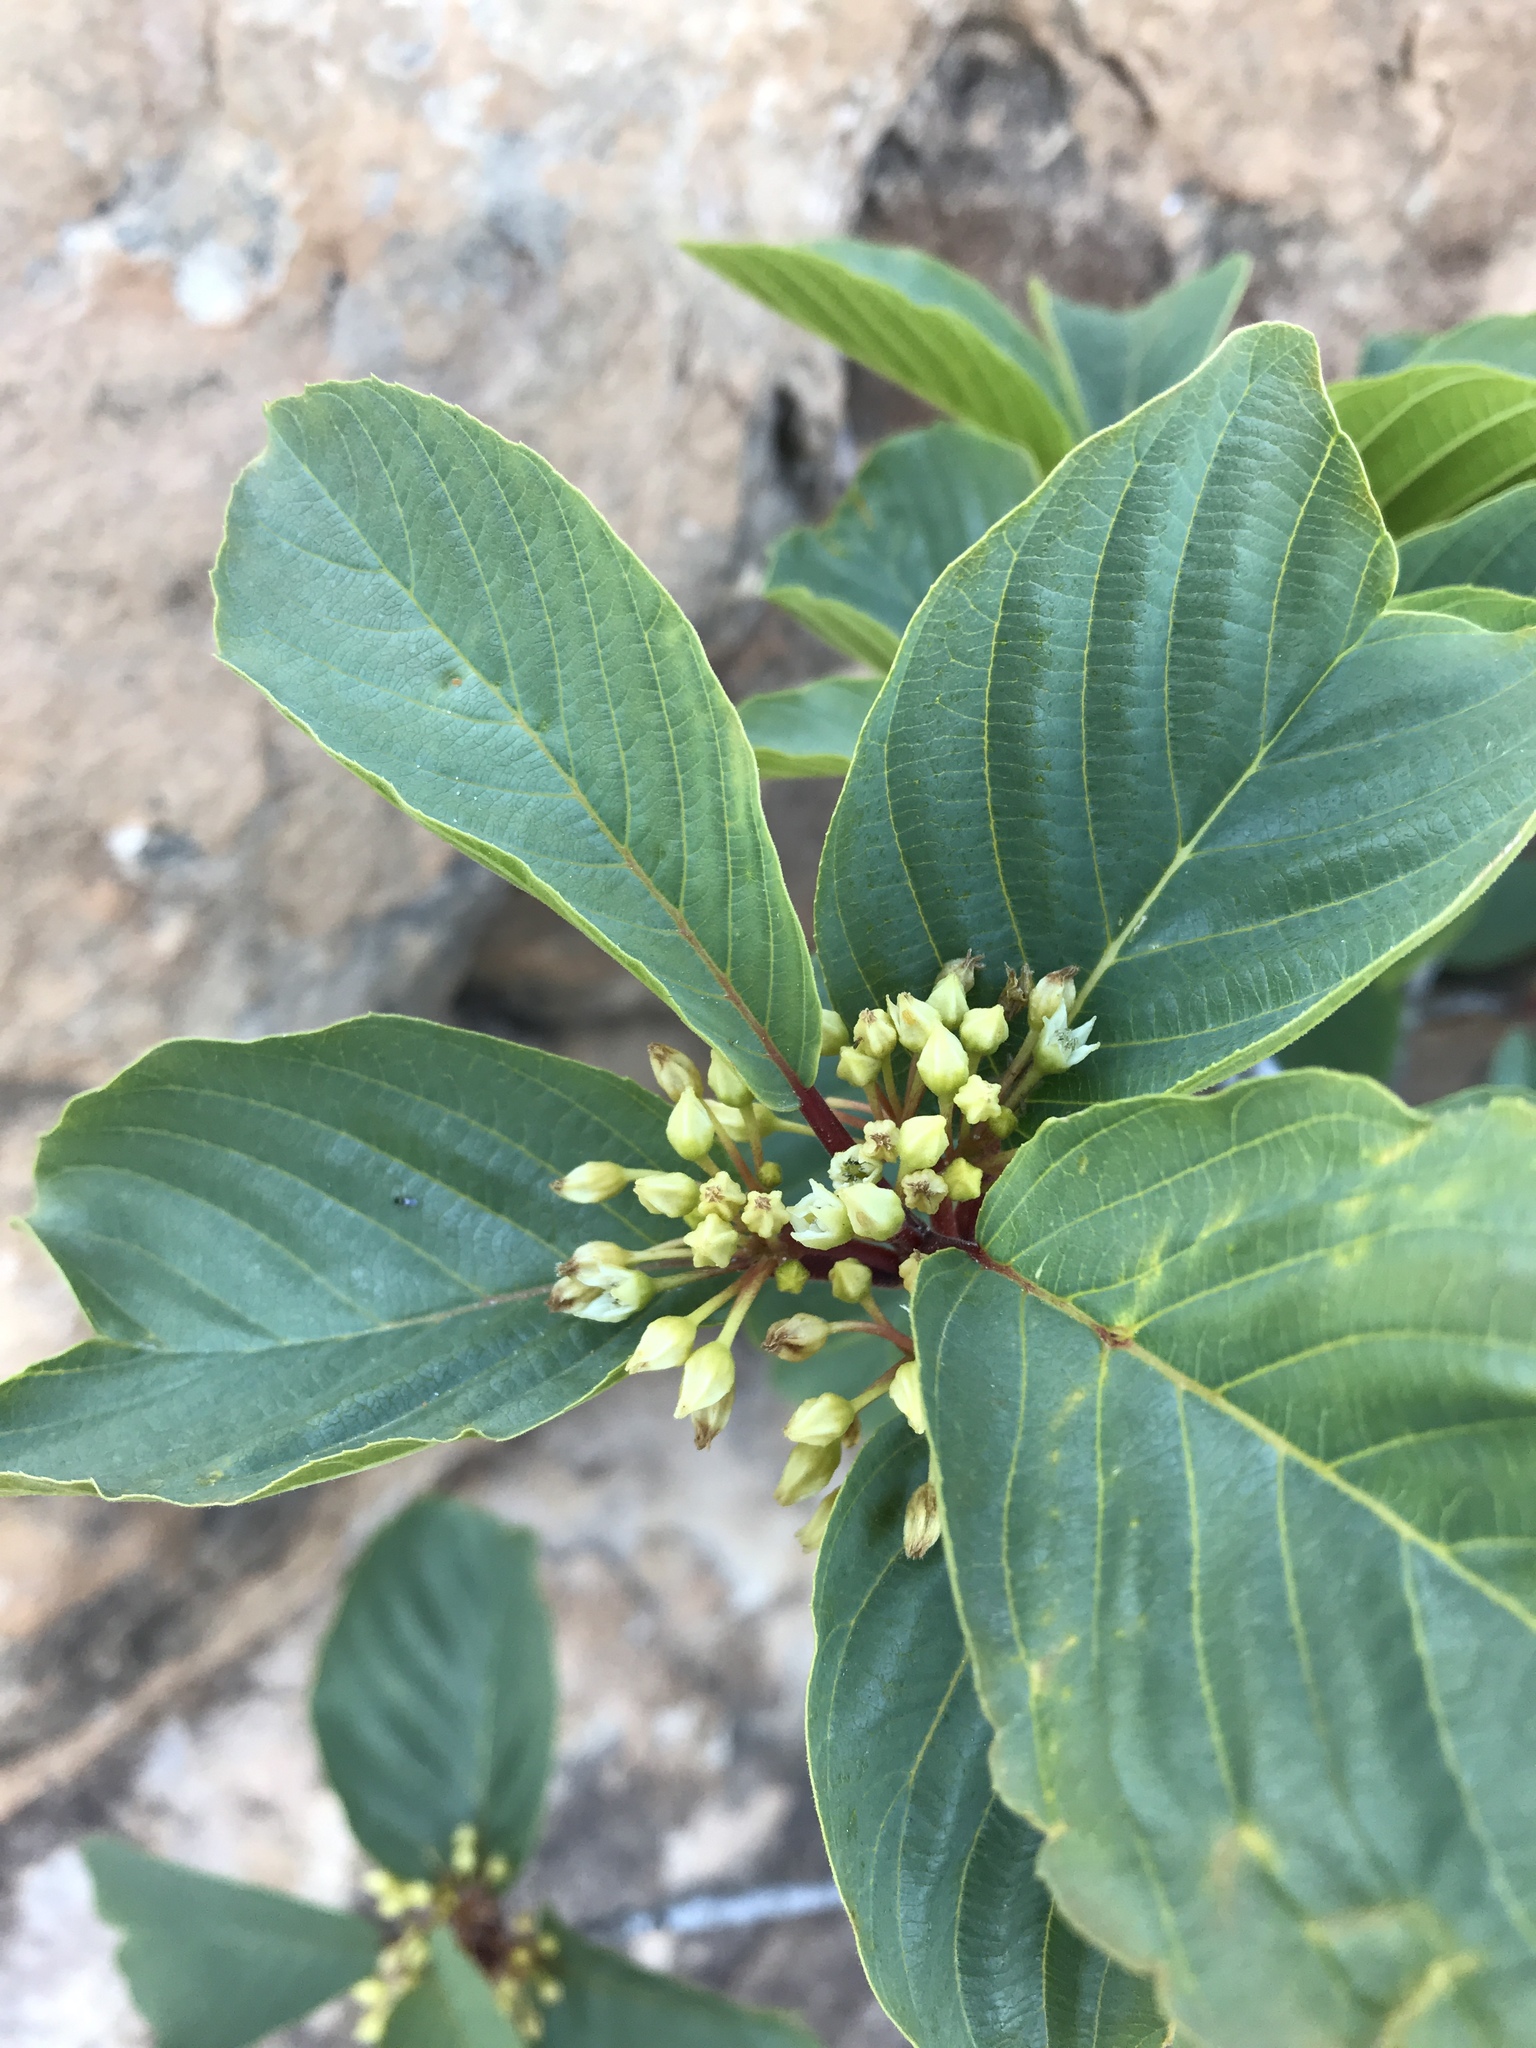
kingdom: Plantae
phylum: Tracheophyta
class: Magnoliopsida
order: Rosales
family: Rhamnaceae
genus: Frangula
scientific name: Frangula betulifolia
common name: Birch-leaf buckthorn
